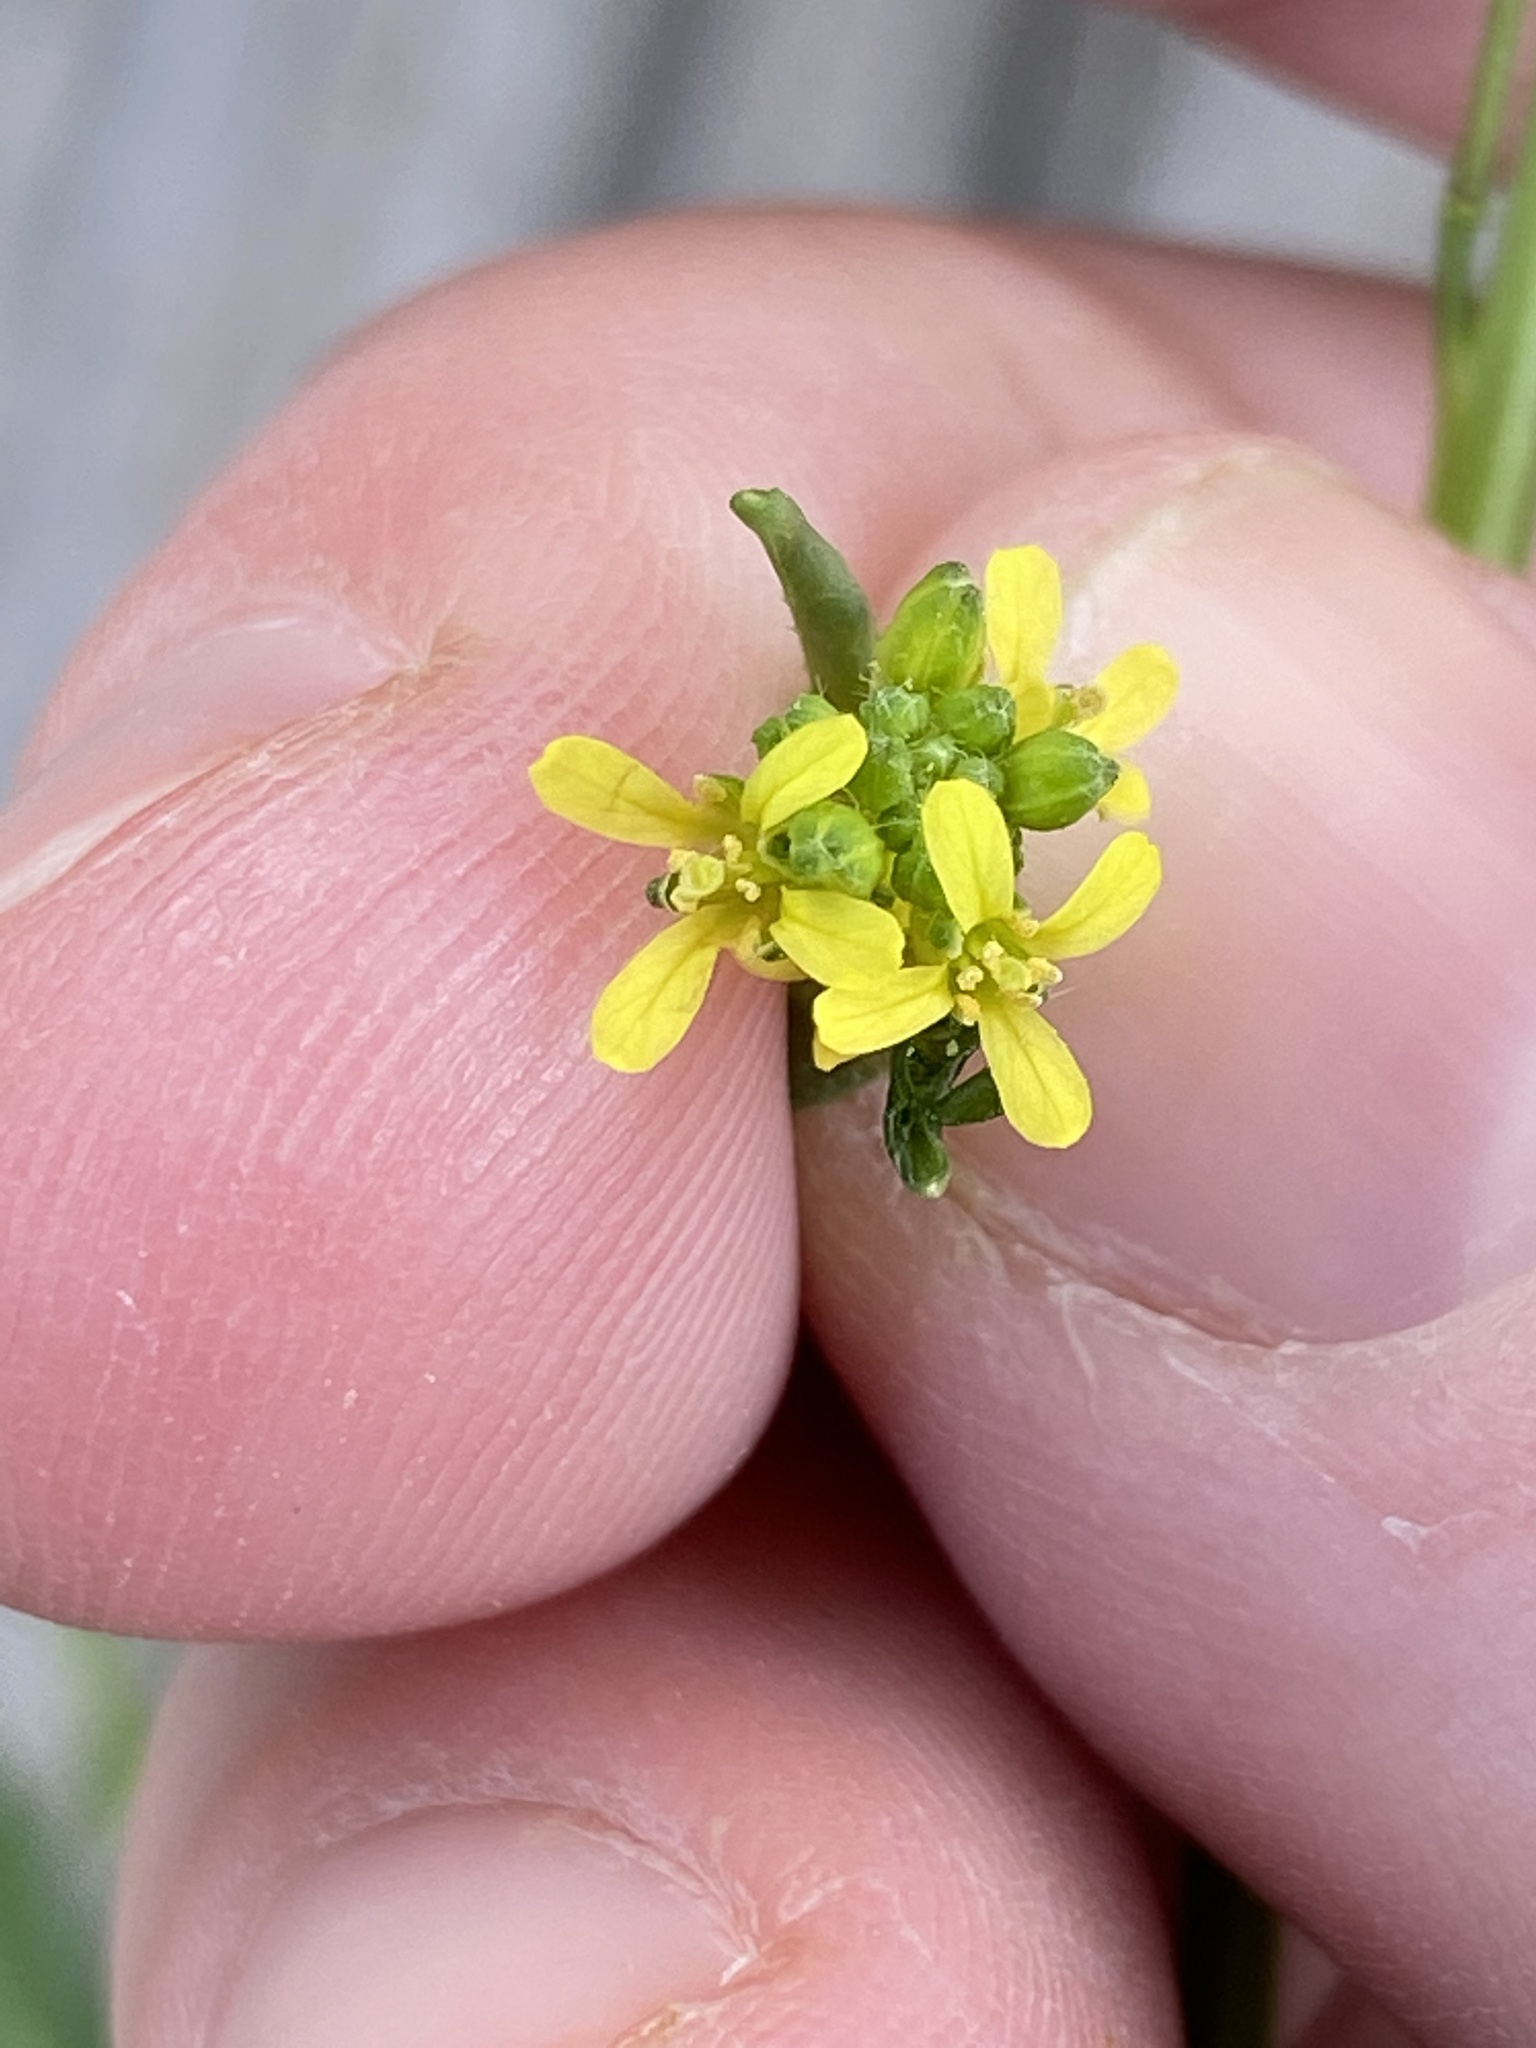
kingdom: Plantae
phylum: Tracheophyta
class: Magnoliopsida
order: Brassicales
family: Brassicaceae
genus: Sisymbrium
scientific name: Sisymbrium officinale
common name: Hedge mustard
